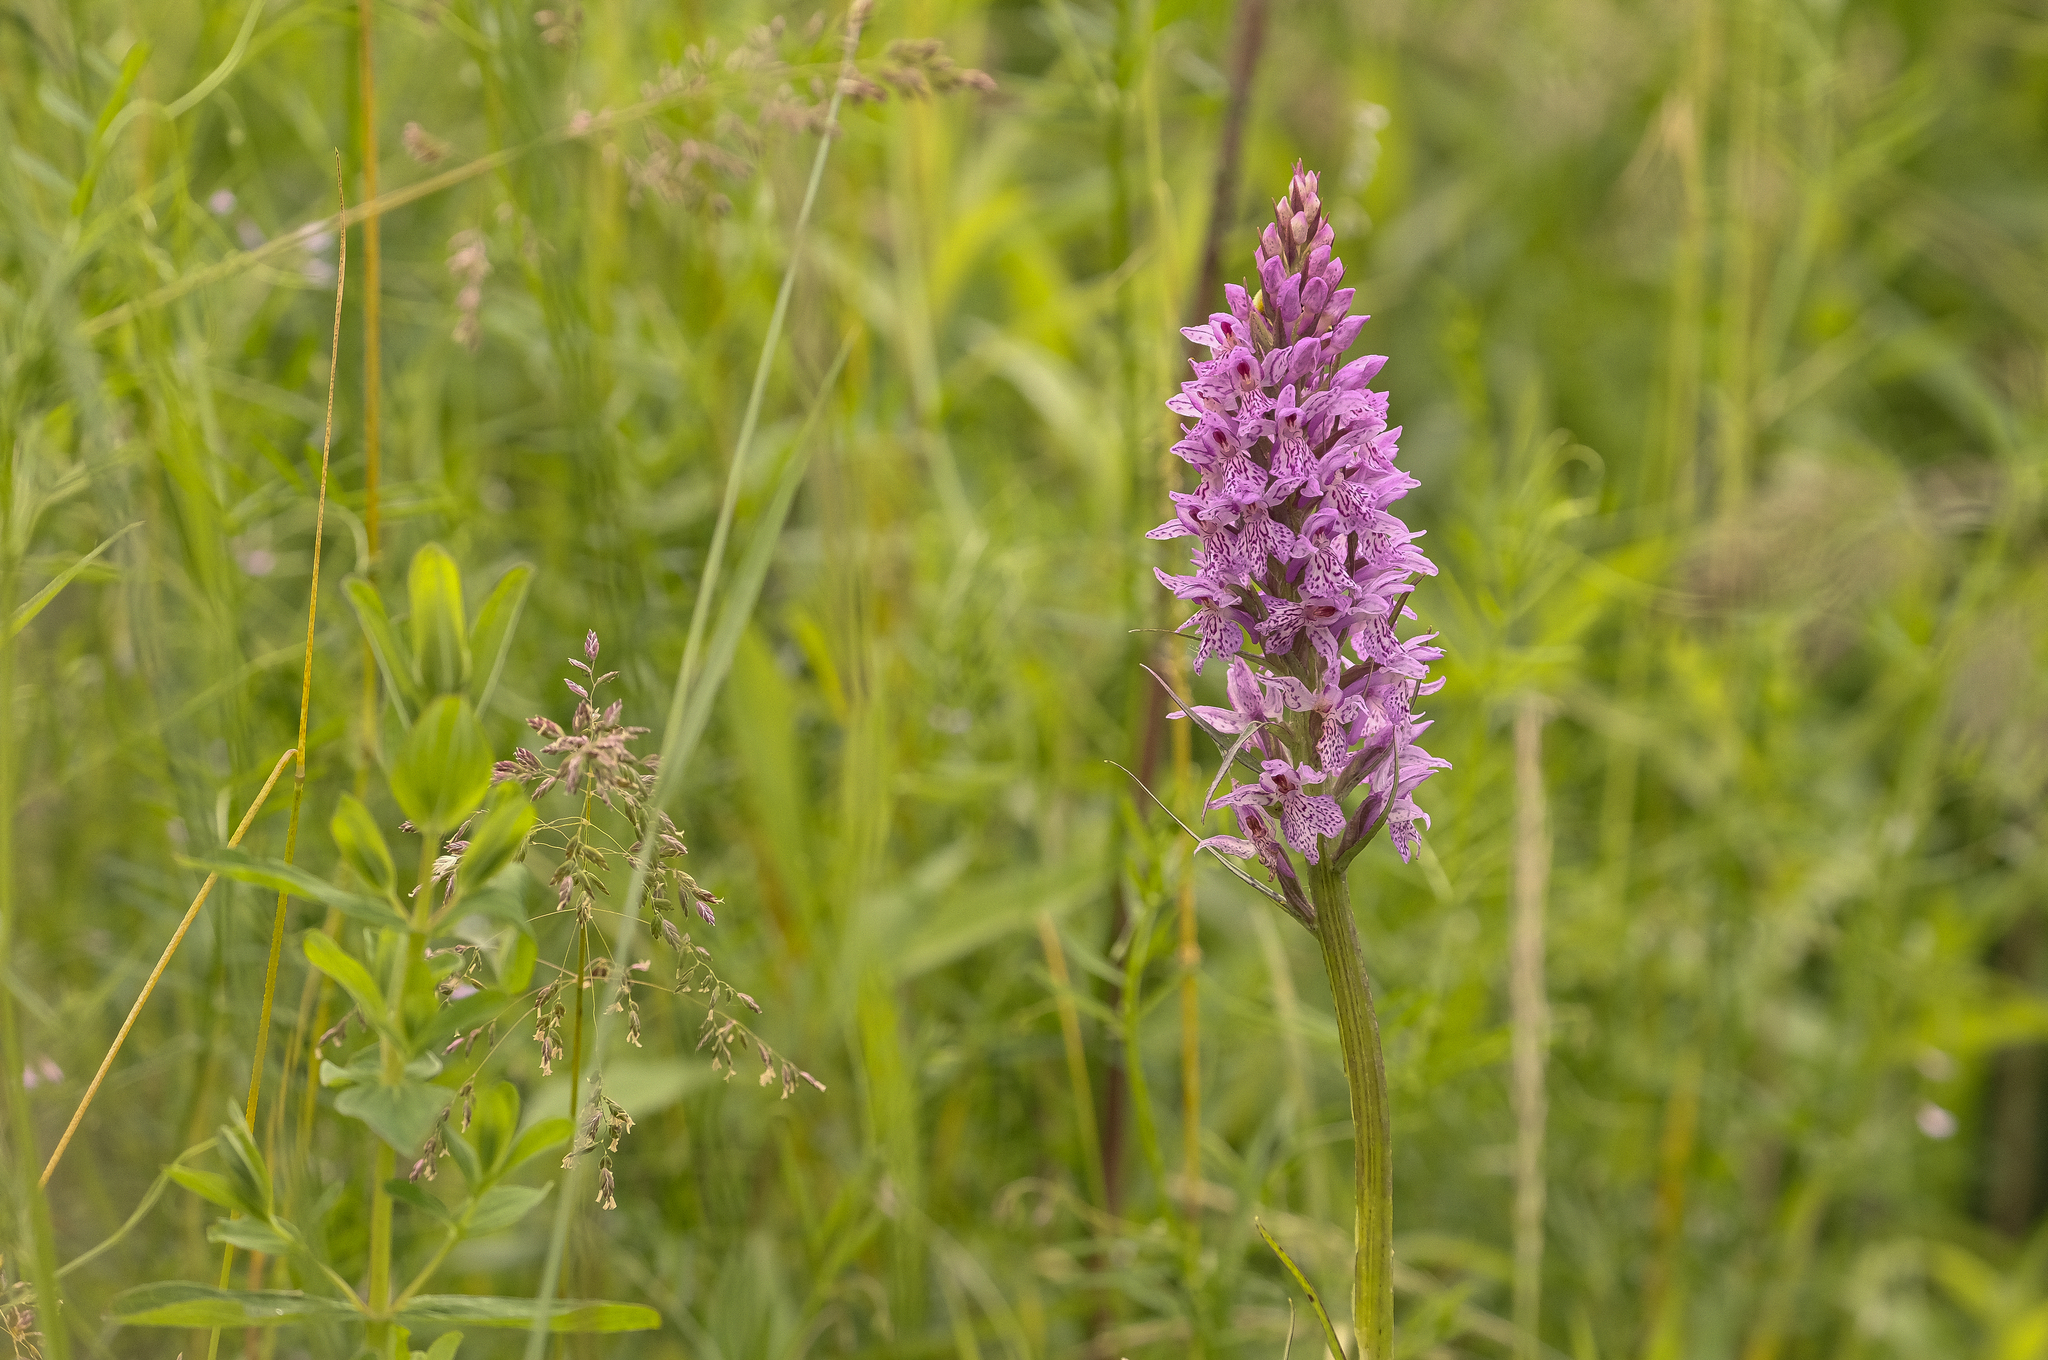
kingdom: Plantae
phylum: Tracheophyta
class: Liliopsida
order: Asparagales
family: Orchidaceae
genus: Dactylorhiza
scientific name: Dactylorhiza maculata
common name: Heath spotted-orchid
